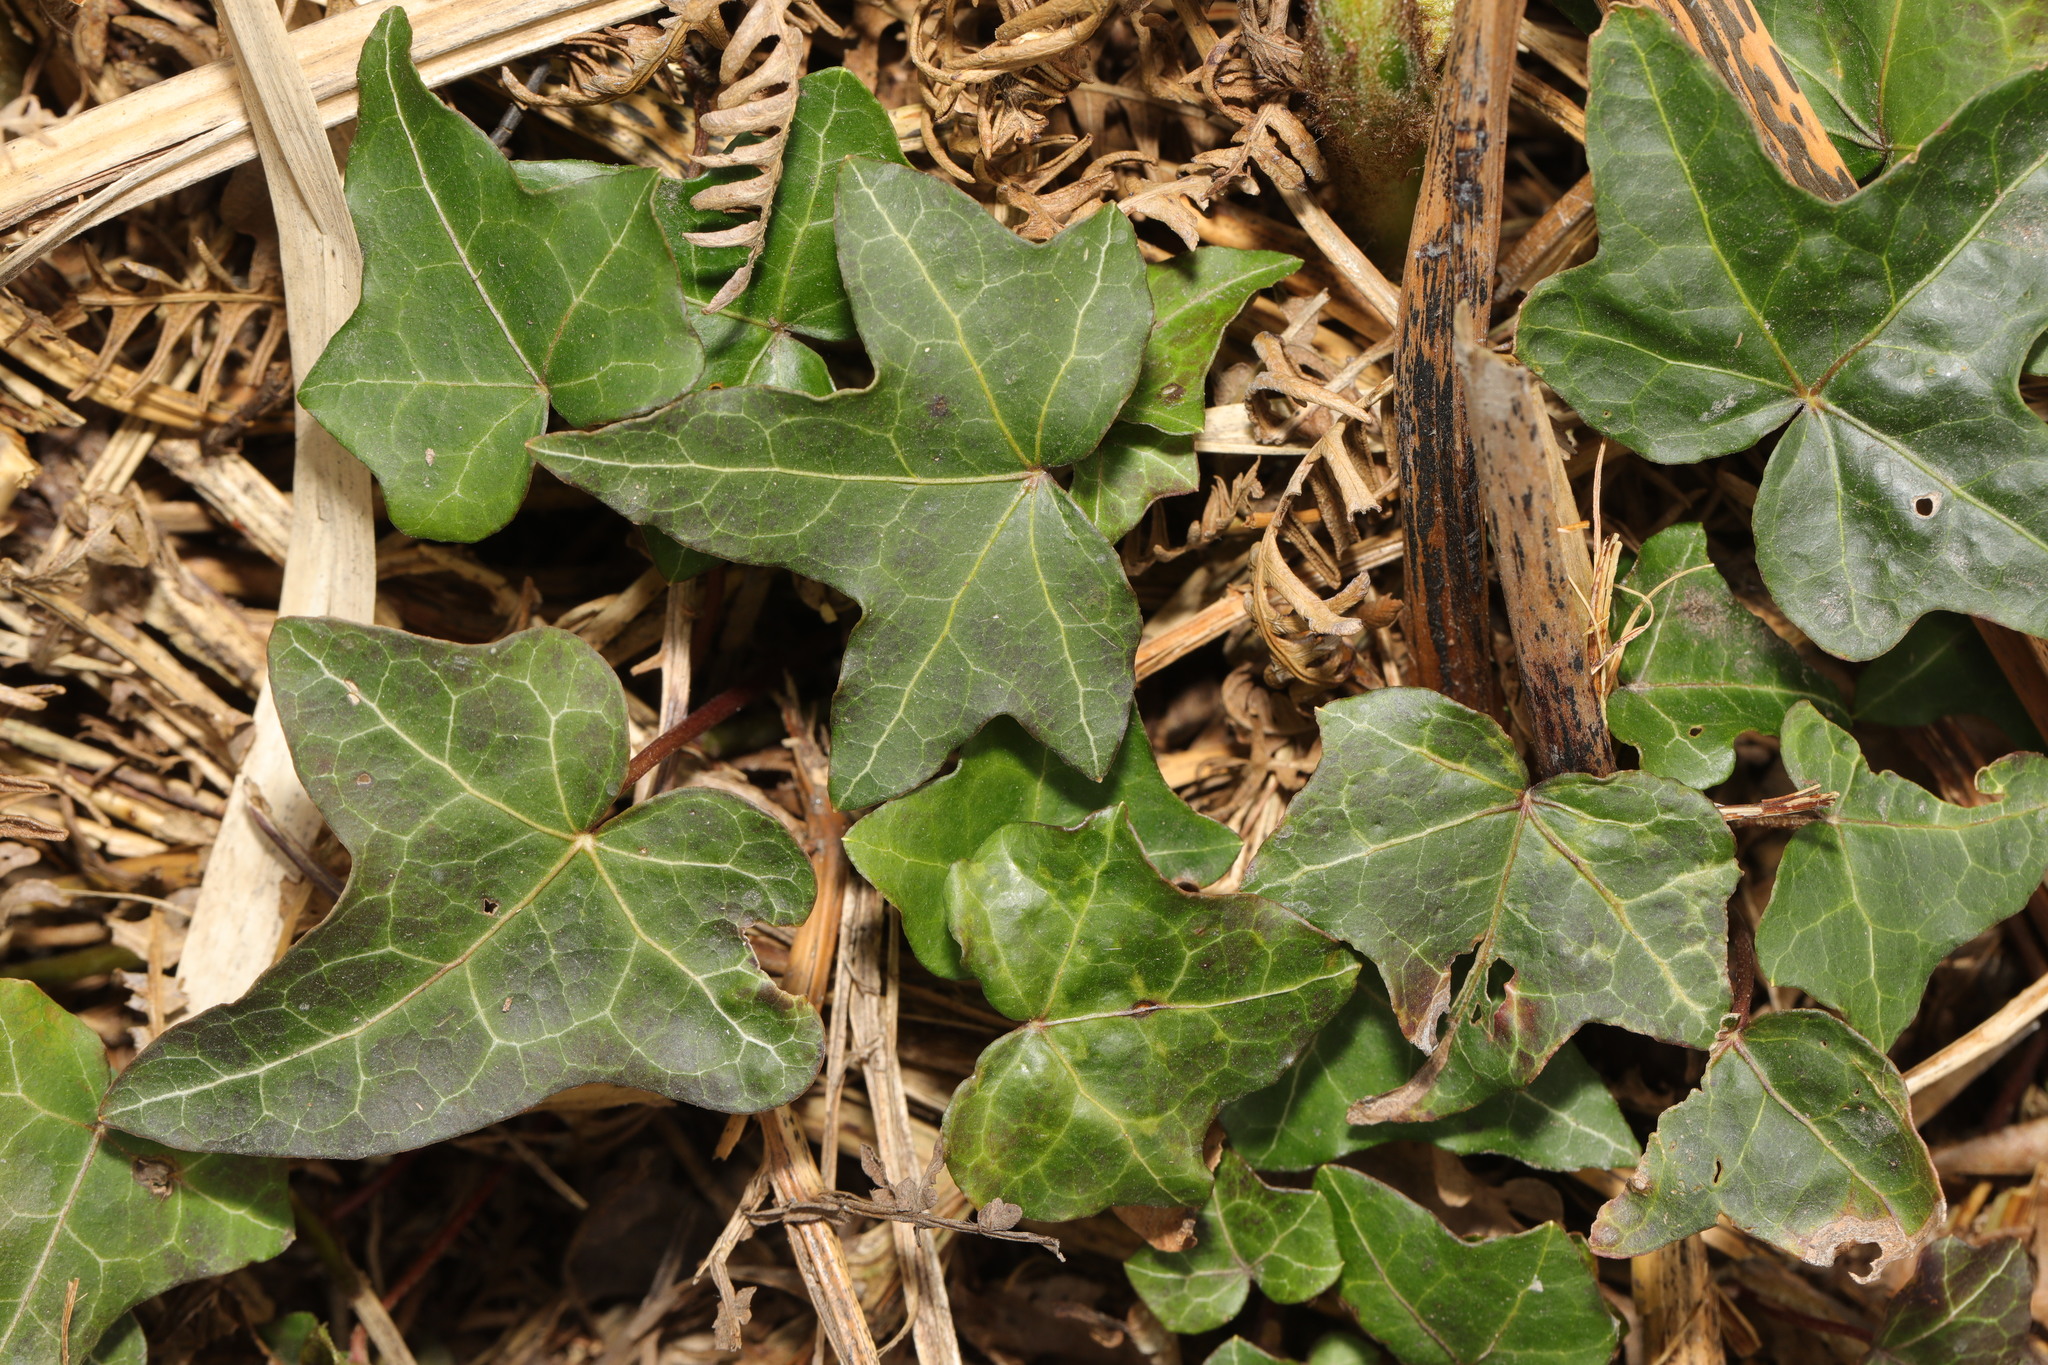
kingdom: Plantae
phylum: Tracheophyta
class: Magnoliopsida
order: Apiales
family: Araliaceae
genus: Hedera
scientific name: Hedera helix
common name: Ivy
